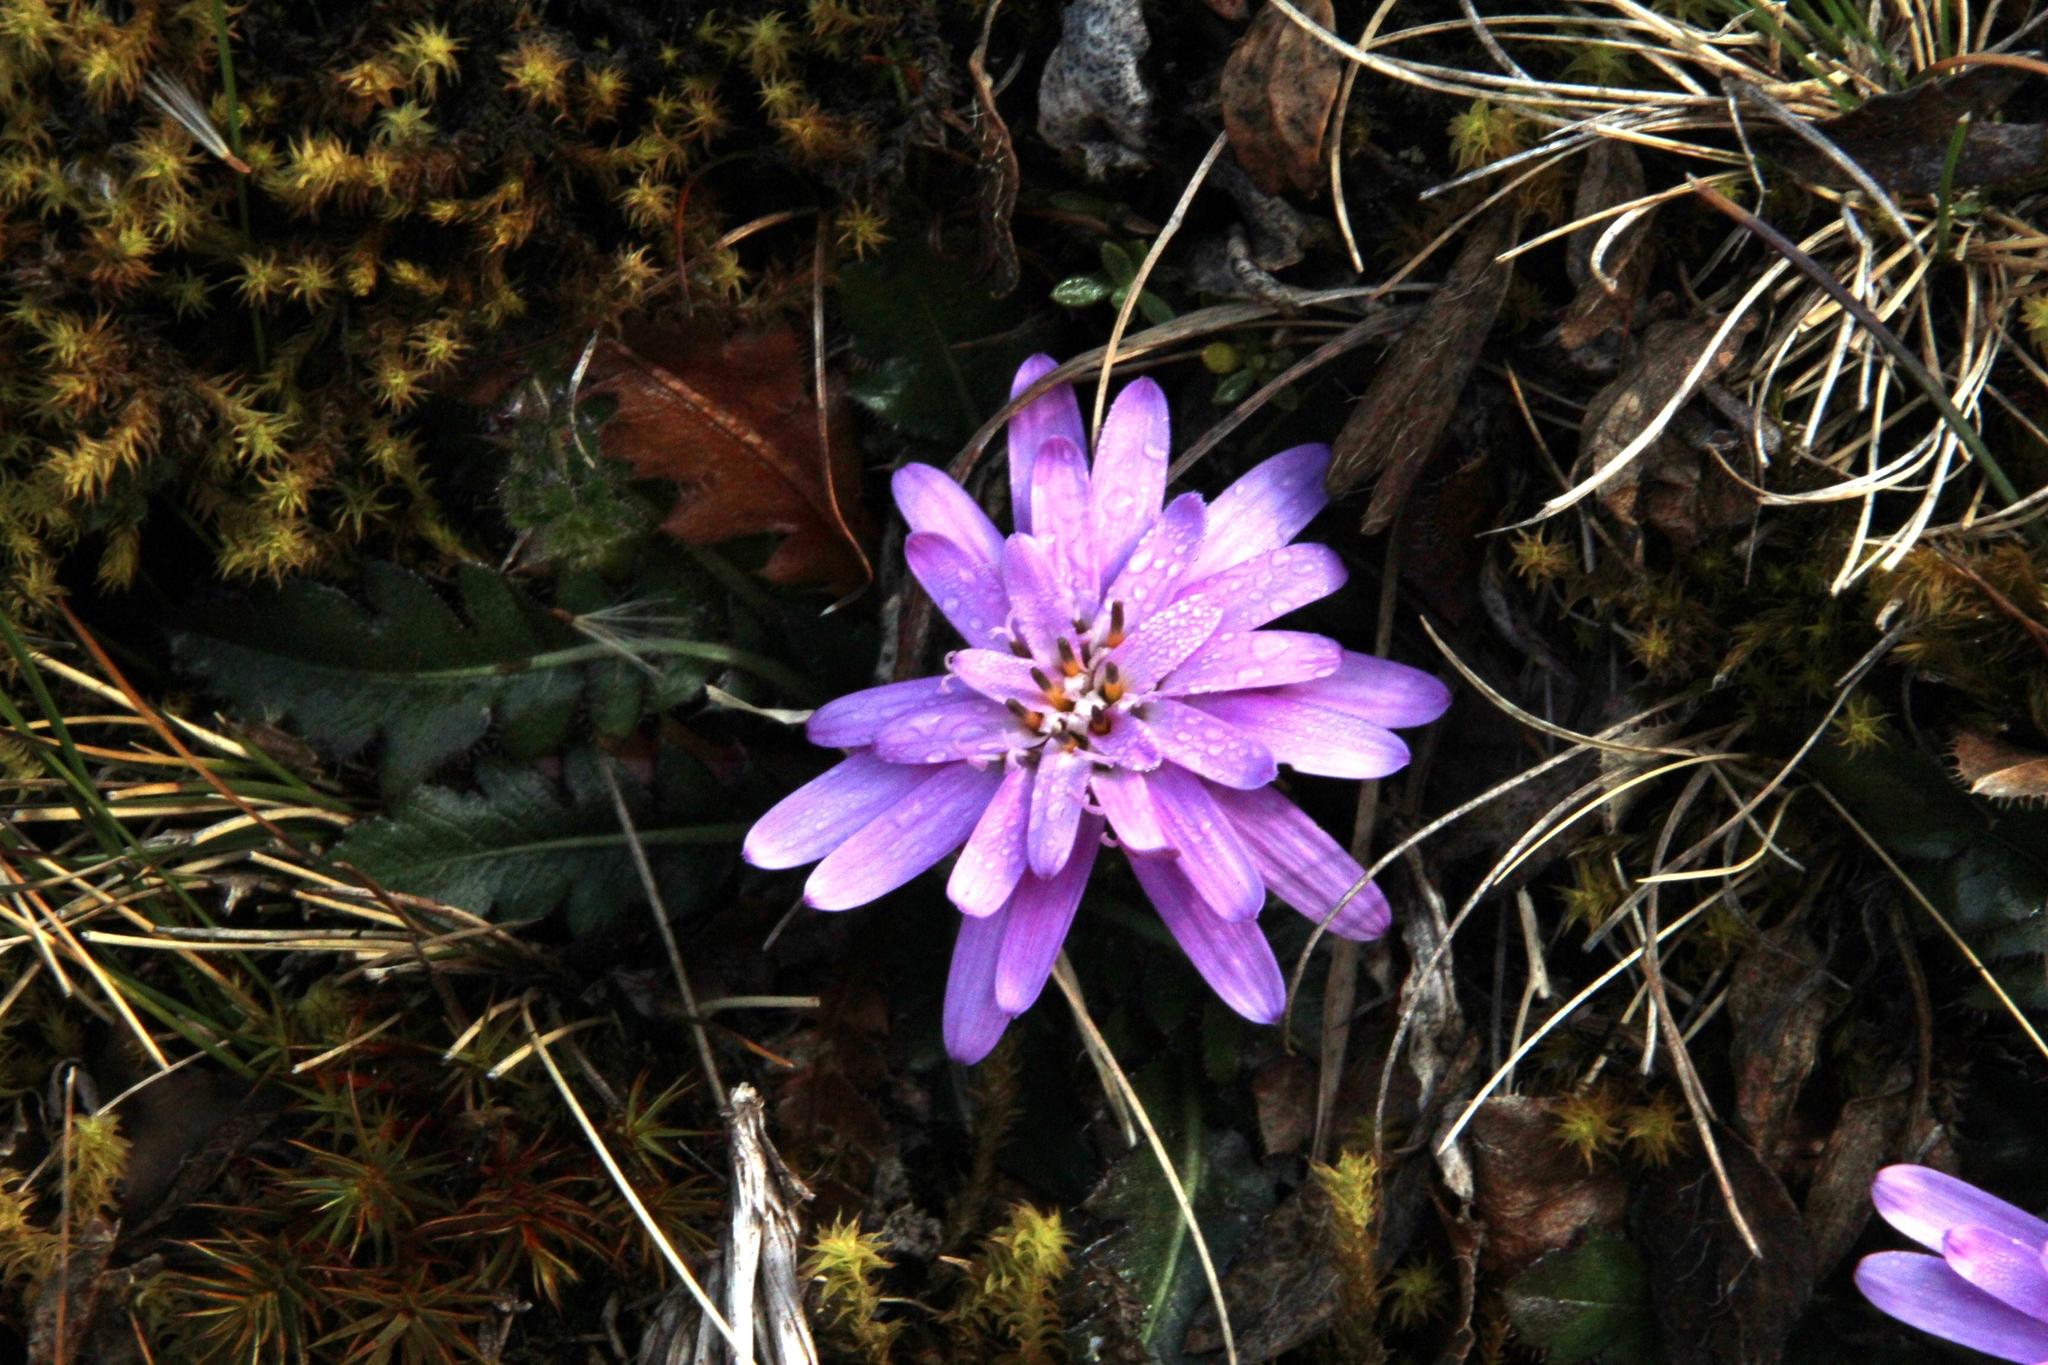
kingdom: Plantae
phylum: Tracheophyta
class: Magnoliopsida
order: Asterales
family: Asteraceae
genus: Perezia
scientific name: Perezia pinnatifida
